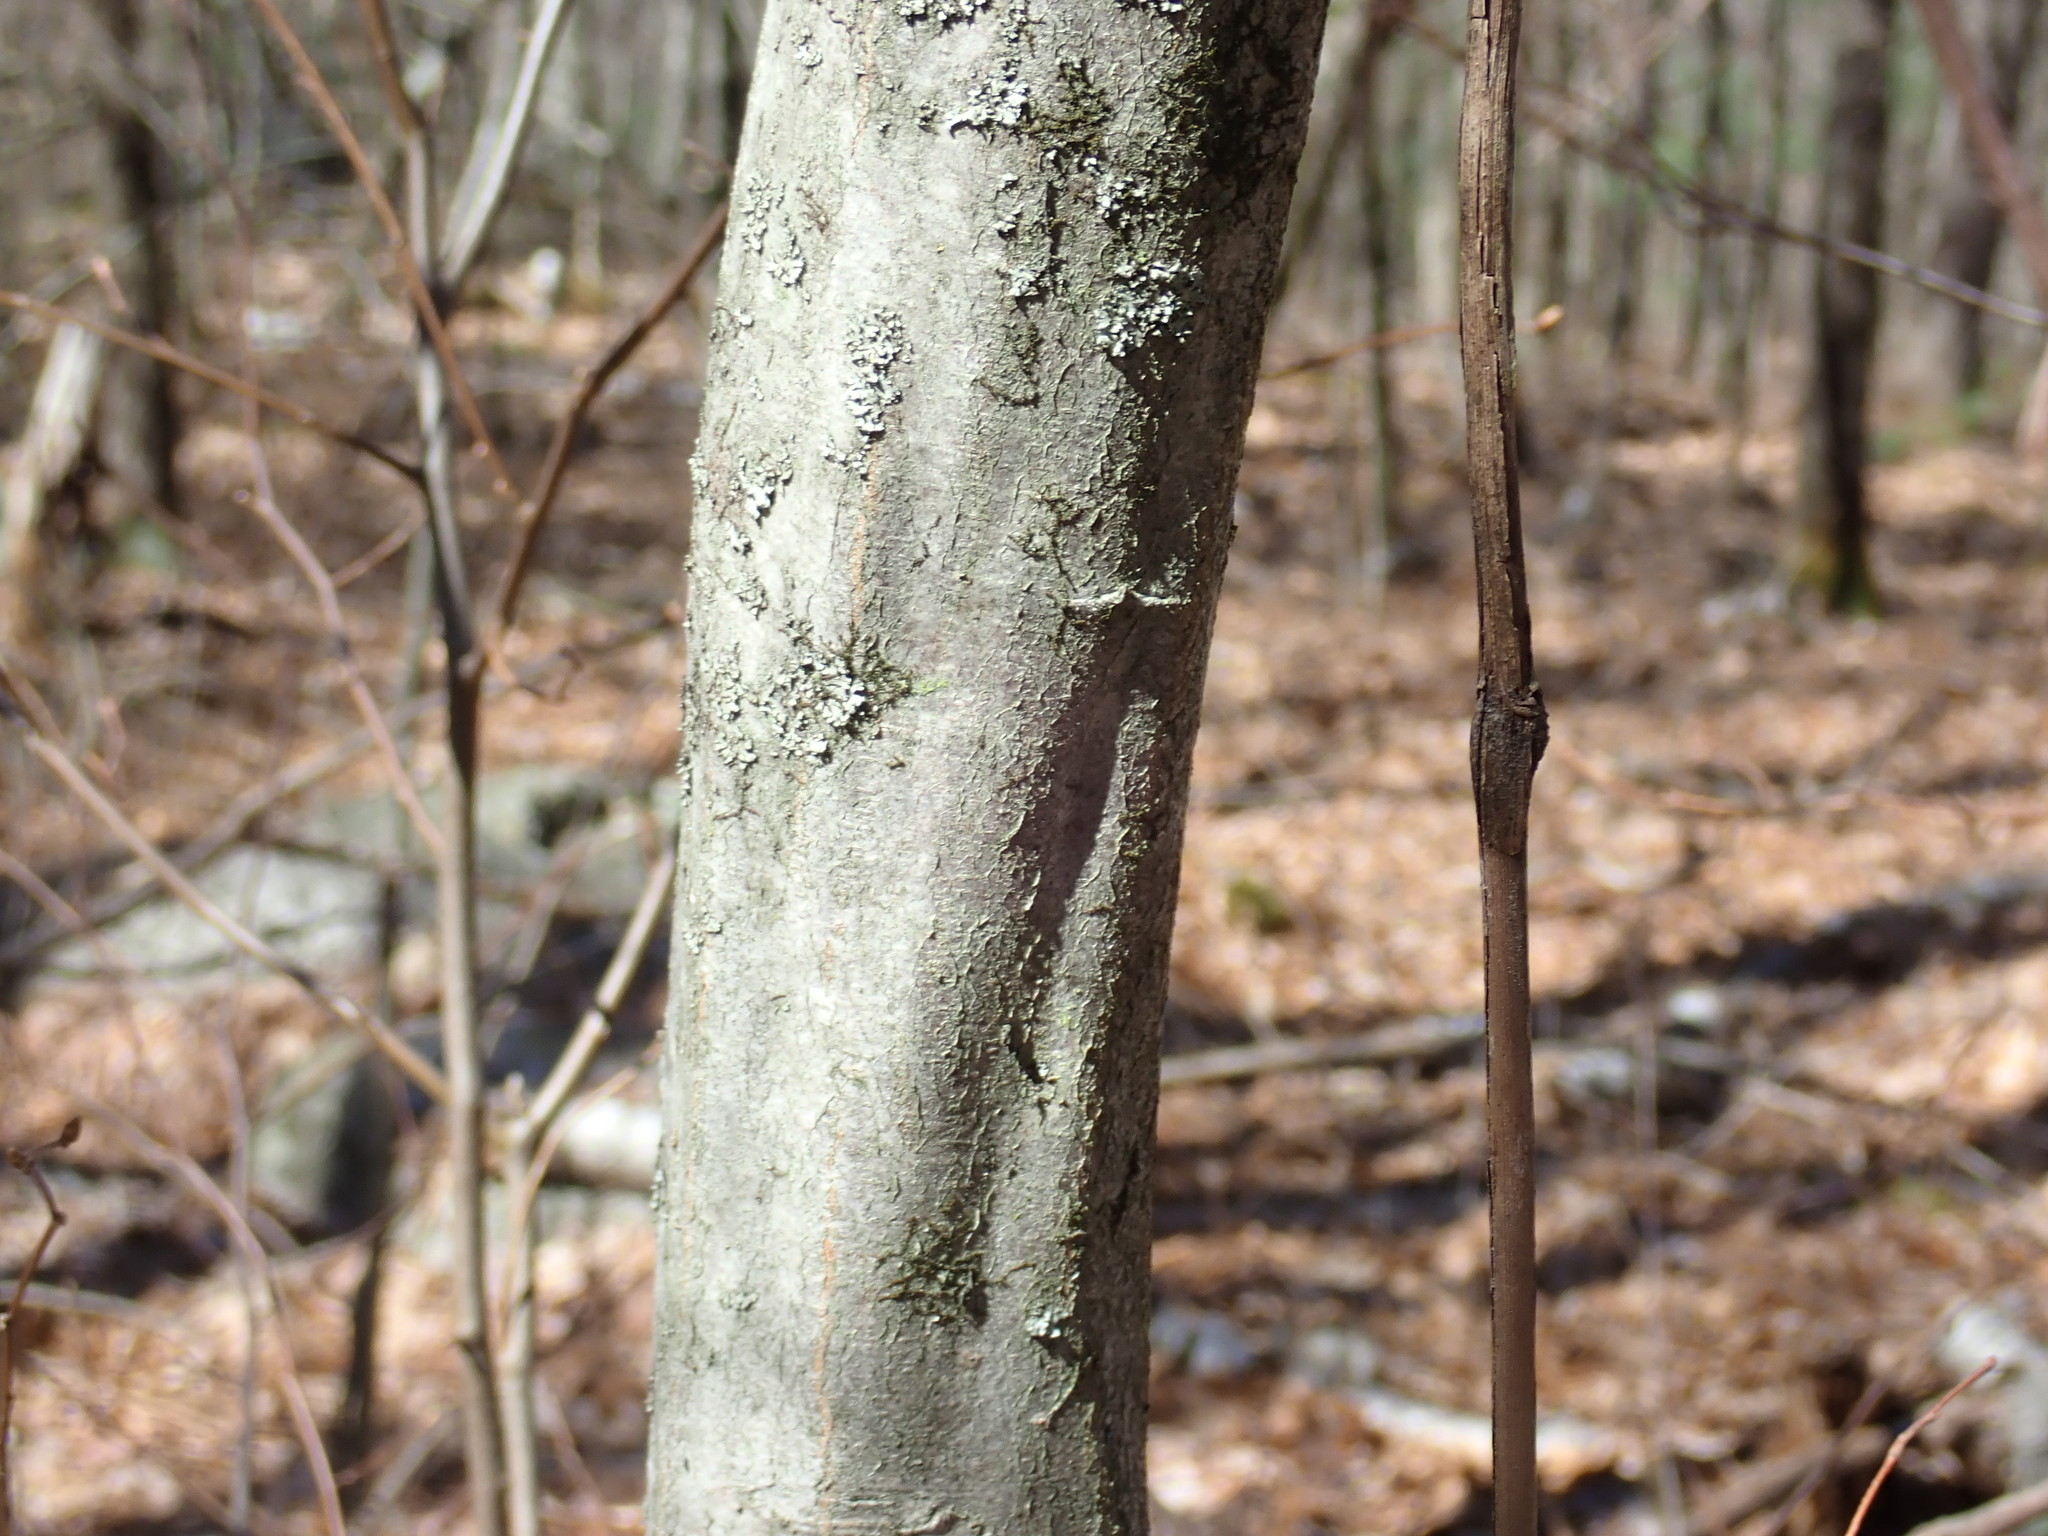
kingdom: Plantae
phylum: Tracheophyta
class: Magnoliopsida
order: Fagales
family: Betulaceae
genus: Carpinus
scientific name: Carpinus caroliniana
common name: American hornbeam
